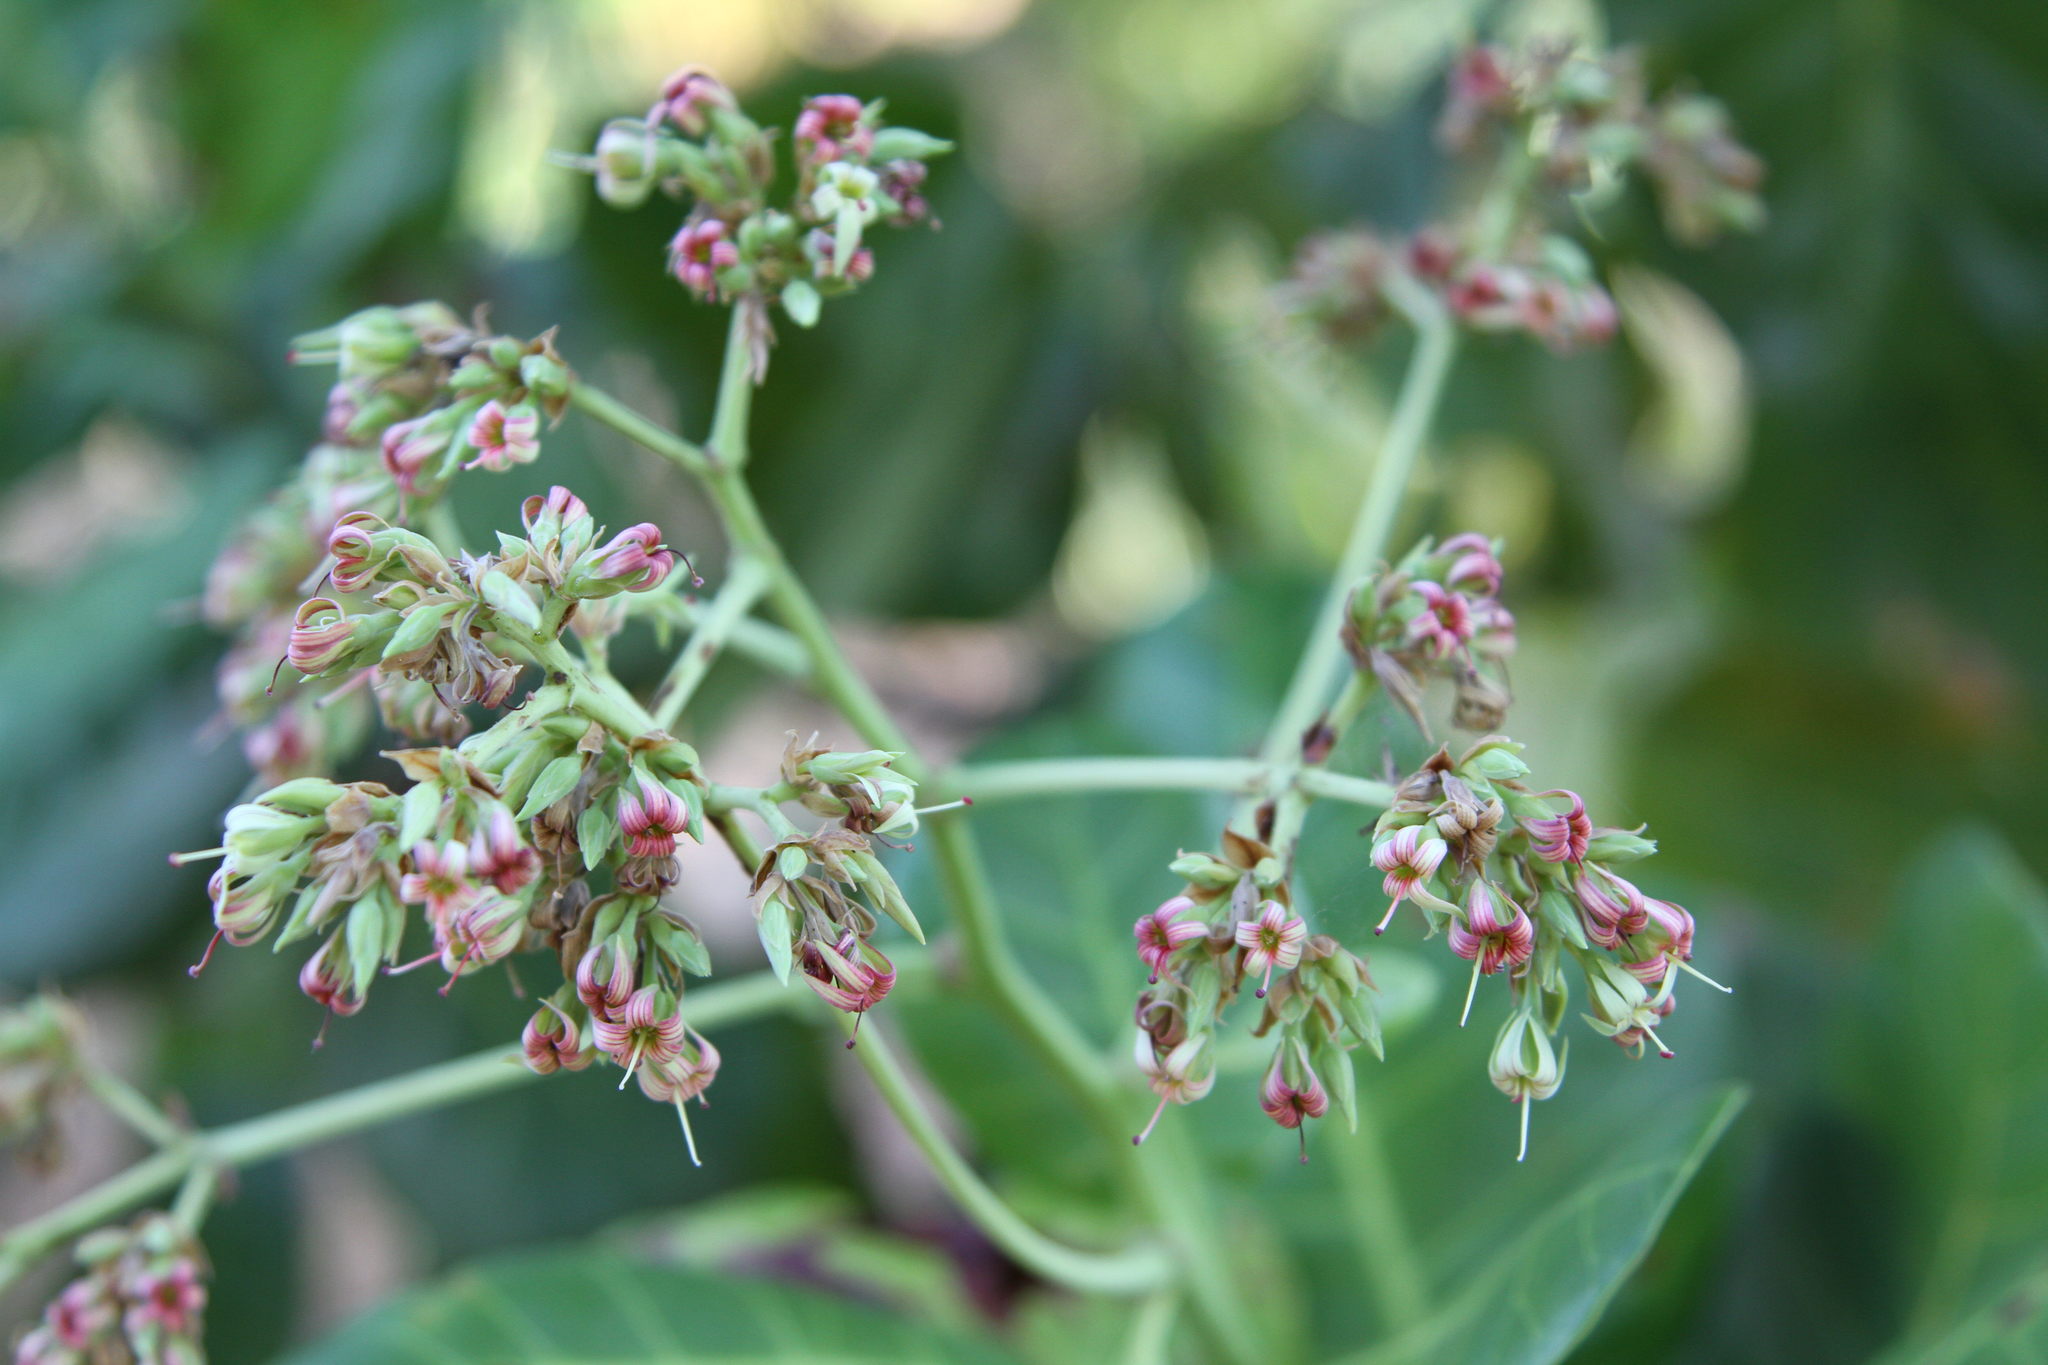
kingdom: Plantae
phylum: Tracheophyta
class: Magnoliopsida
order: Sapindales
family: Anacardiaceae
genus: Anacardium
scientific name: Anacardium occidentale
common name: Cashew
